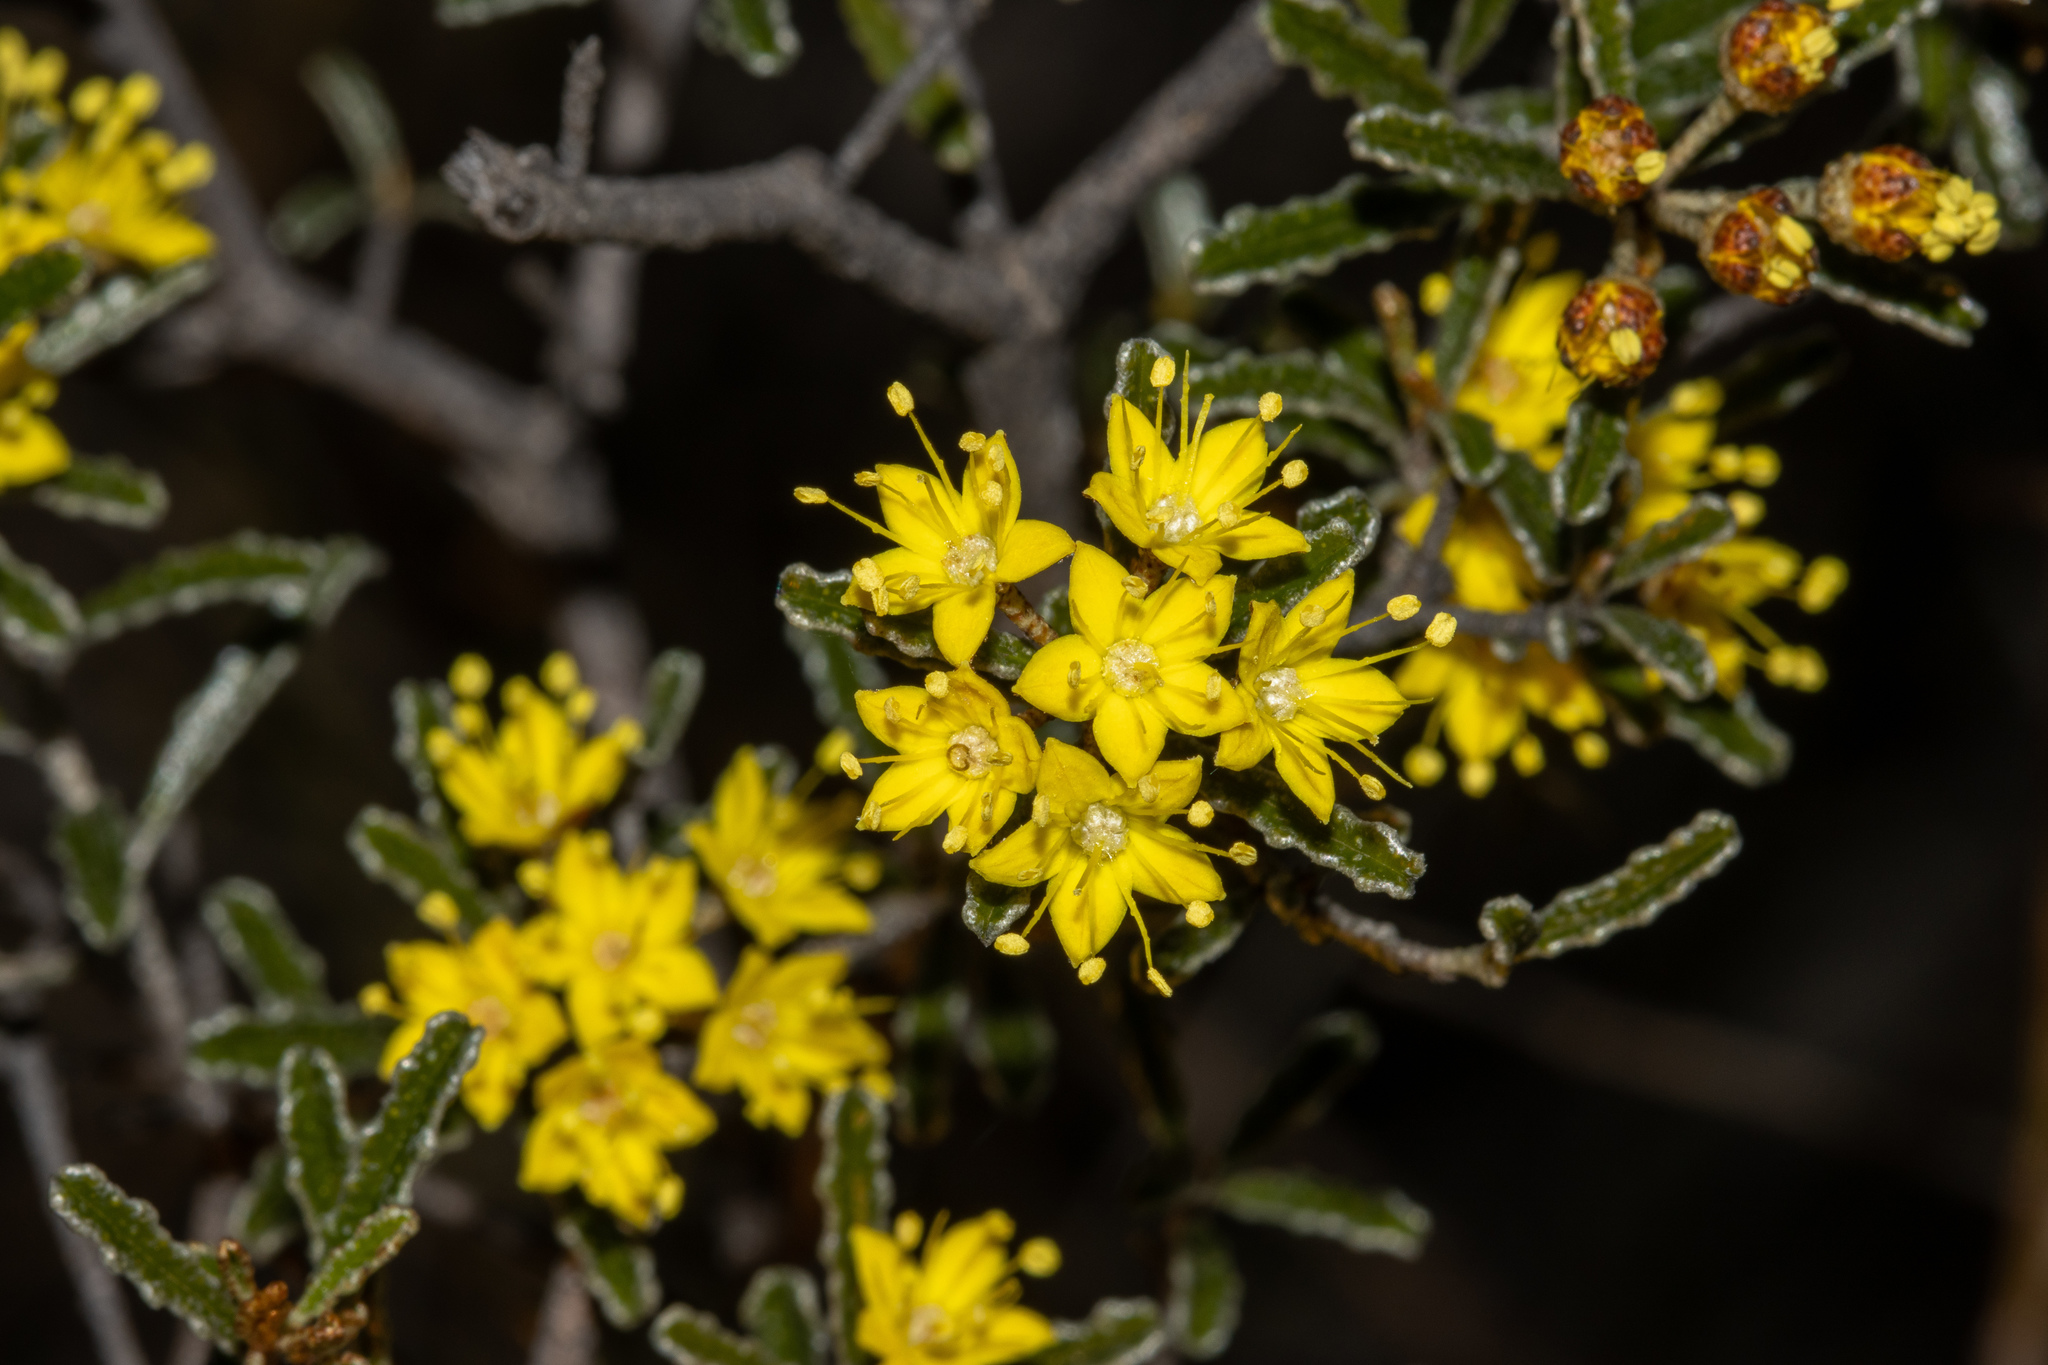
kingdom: Plantae
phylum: Tracheophyta
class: Magnoliopsida
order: Sapindales
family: Rutaceae
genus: Phebalium
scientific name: Phebalium bullatum
